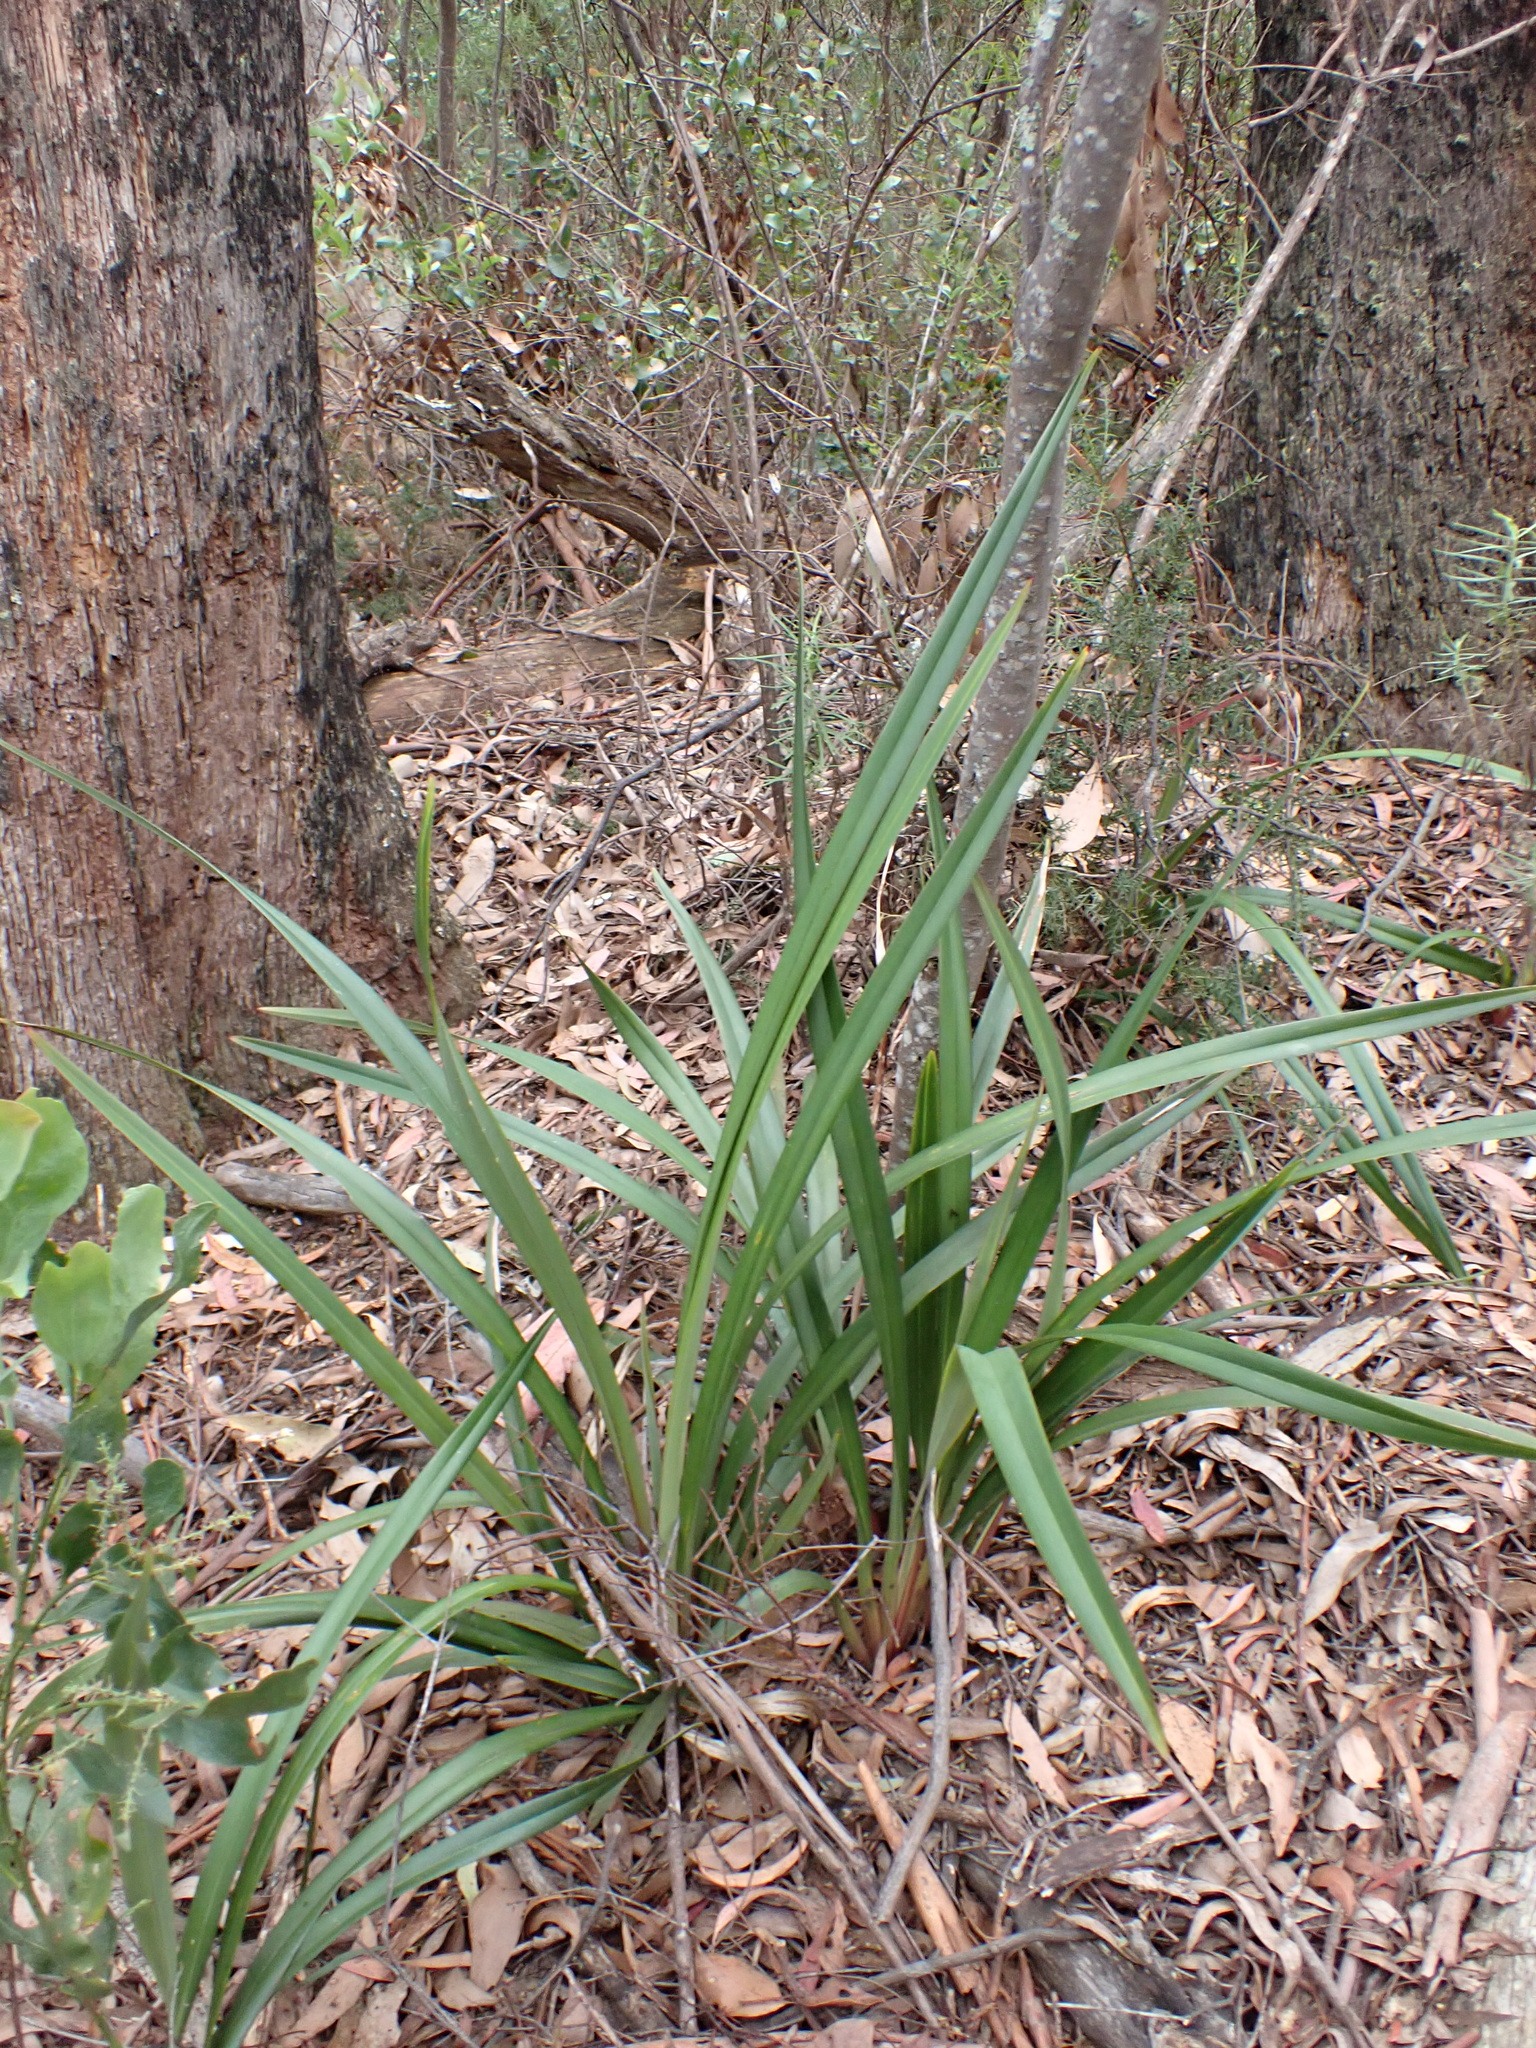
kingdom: Plantae
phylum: Tracheophyta
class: Liliopsida
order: Asparagales
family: Asphodelaceae
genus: Dianella
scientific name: Dianella tasmanica
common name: Tasman flax-lily
